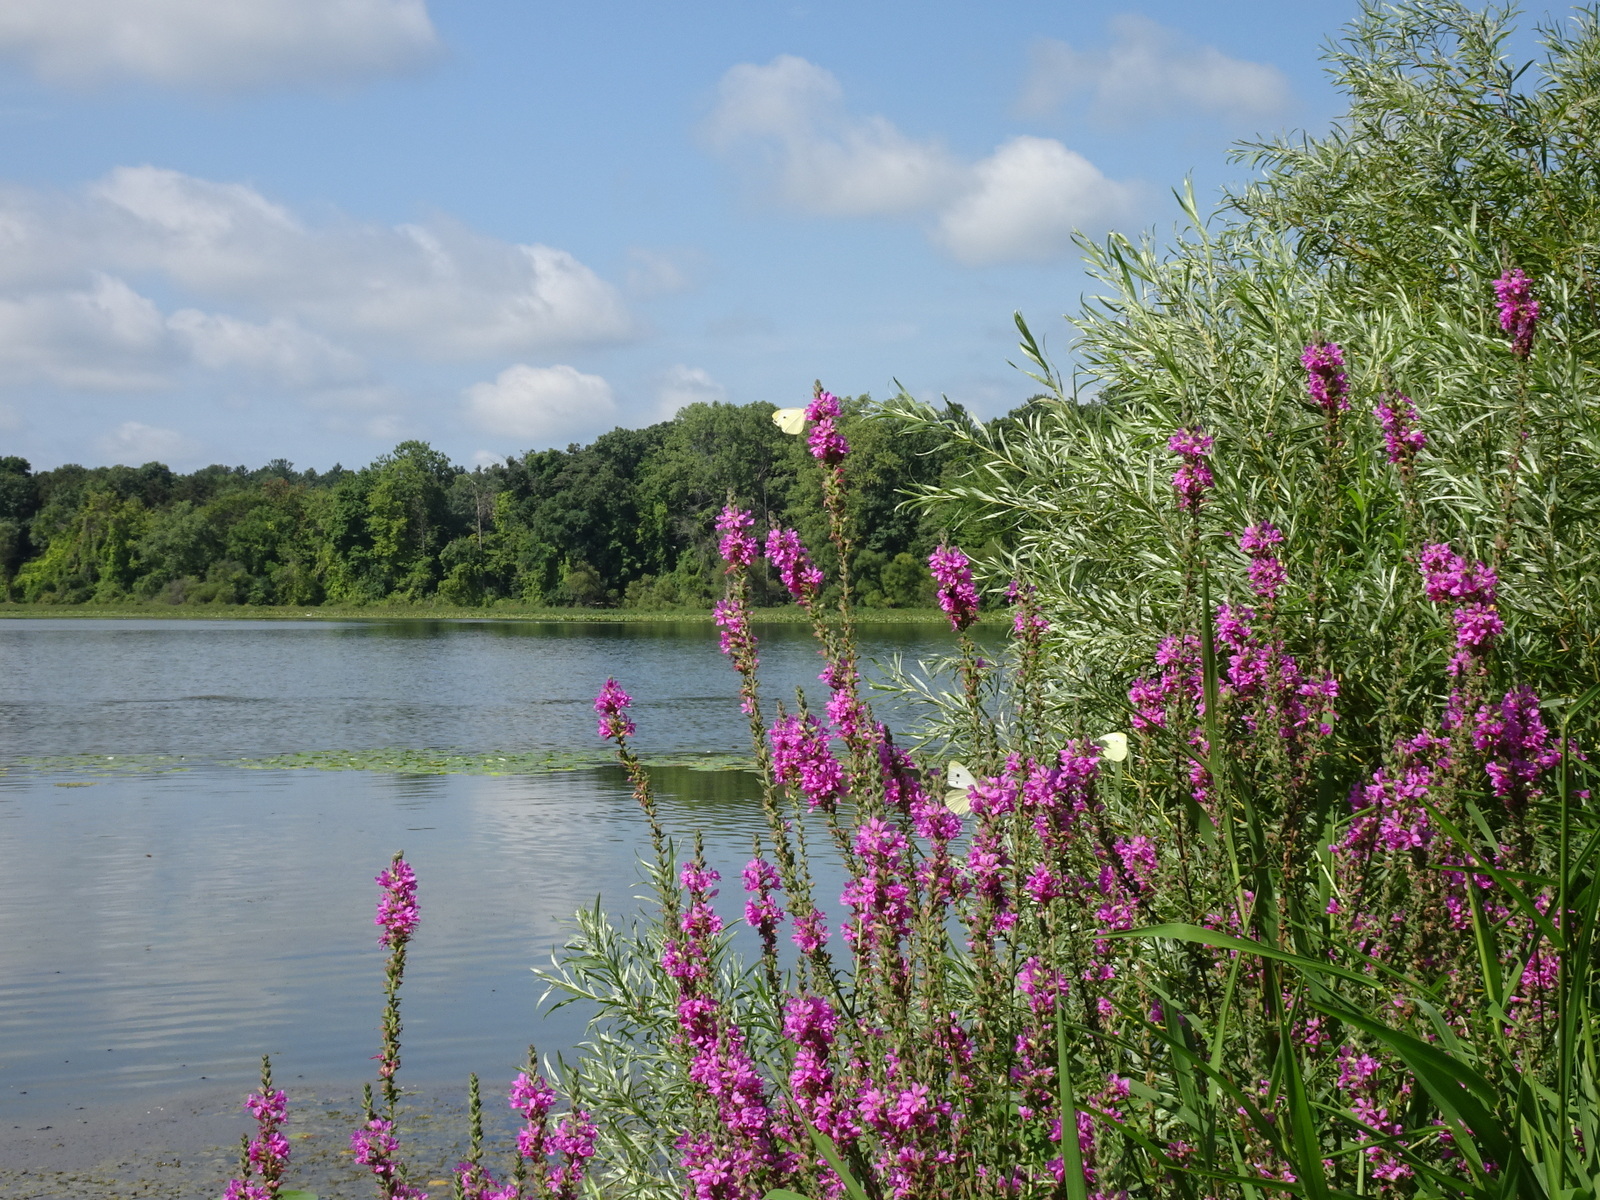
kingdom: Plantae
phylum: Tracheophyta
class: Magnoliopsida
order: Myrtales
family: Lythraceae
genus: Lythrum
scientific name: Lythrum salicaria
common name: Purple loosestrife
